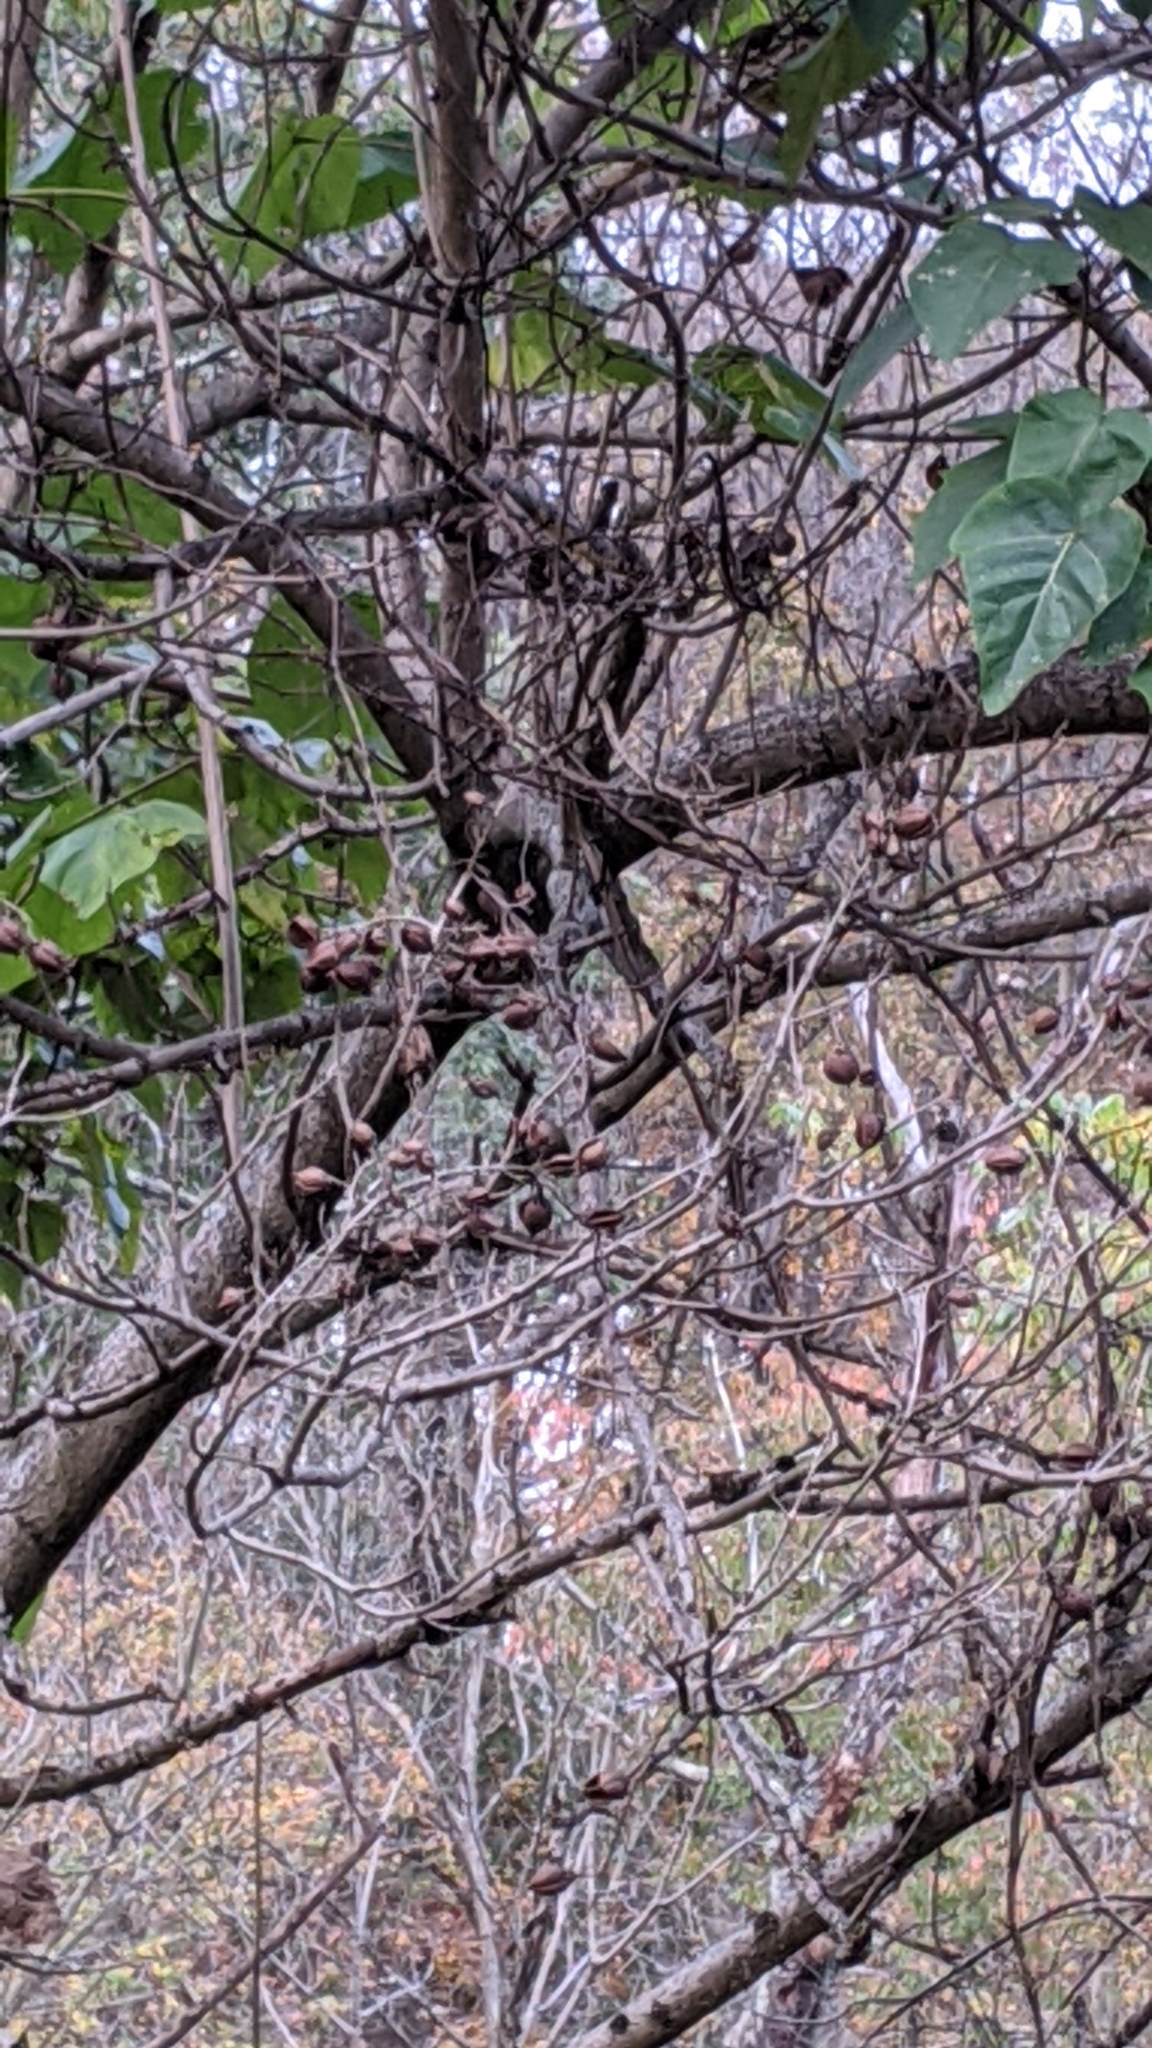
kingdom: Plantae
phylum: Tracheophyta
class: Magnoliopsida
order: Lamiales
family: Paulowniaceae
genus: Paulownia
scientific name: Paulownia tomentosa
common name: Foxglove-tree
